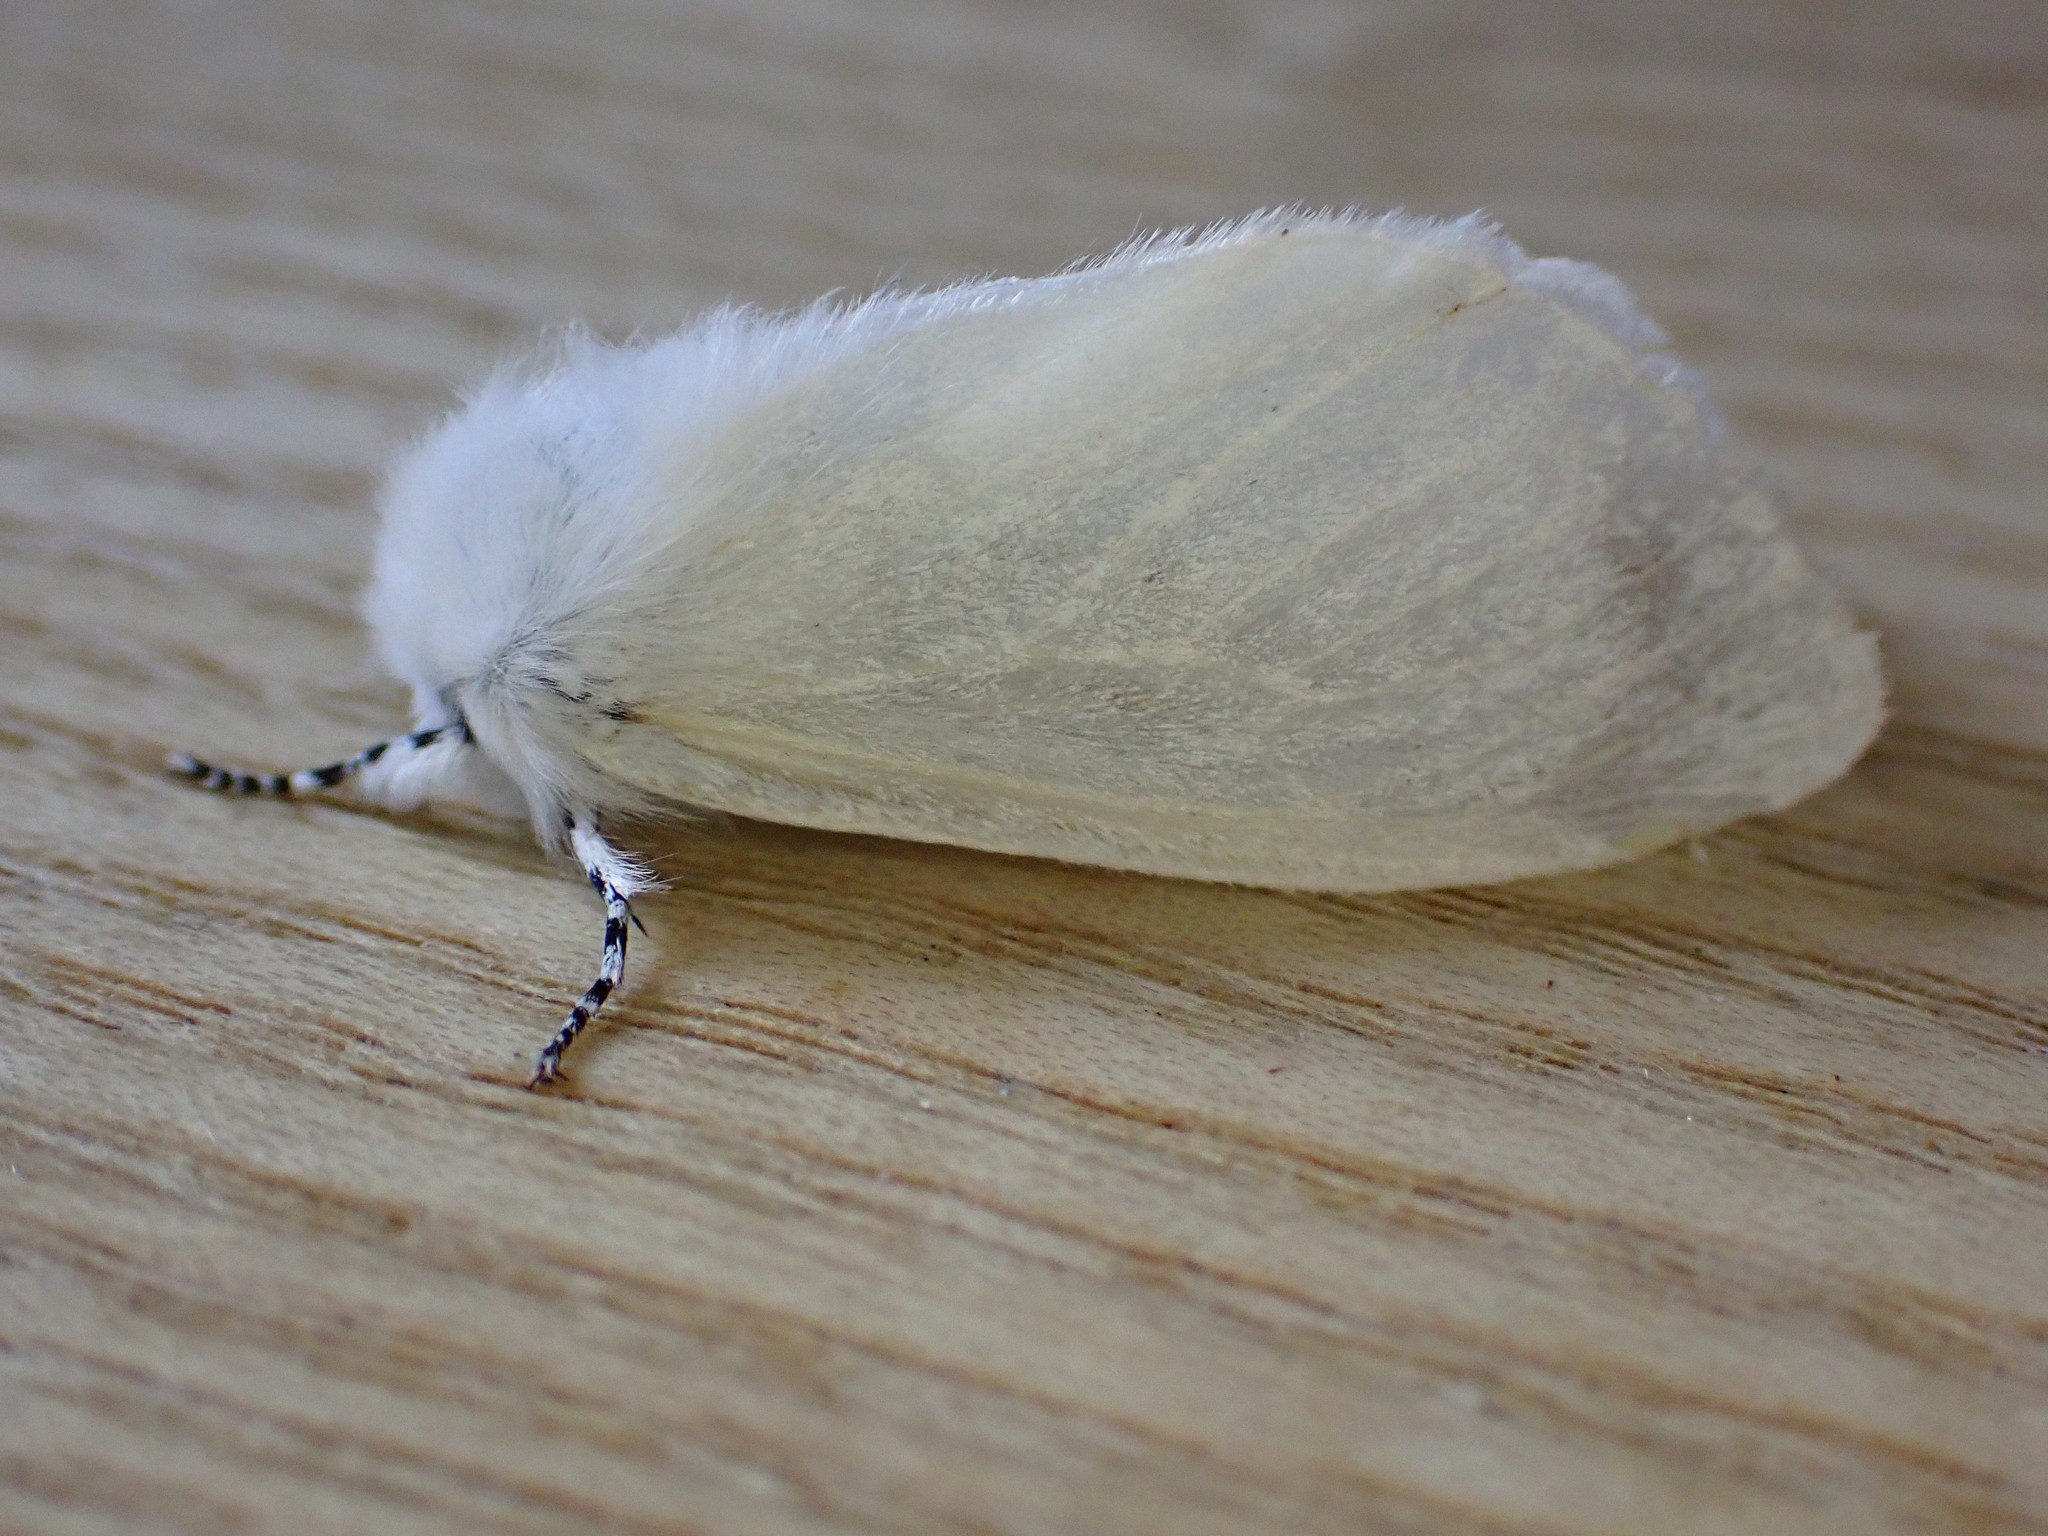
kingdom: Animalia
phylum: Arthropoda
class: Insecta
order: Lepidoptera
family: Erebidae
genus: Leucoma
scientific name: Leucoma salicis
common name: White satin moth
